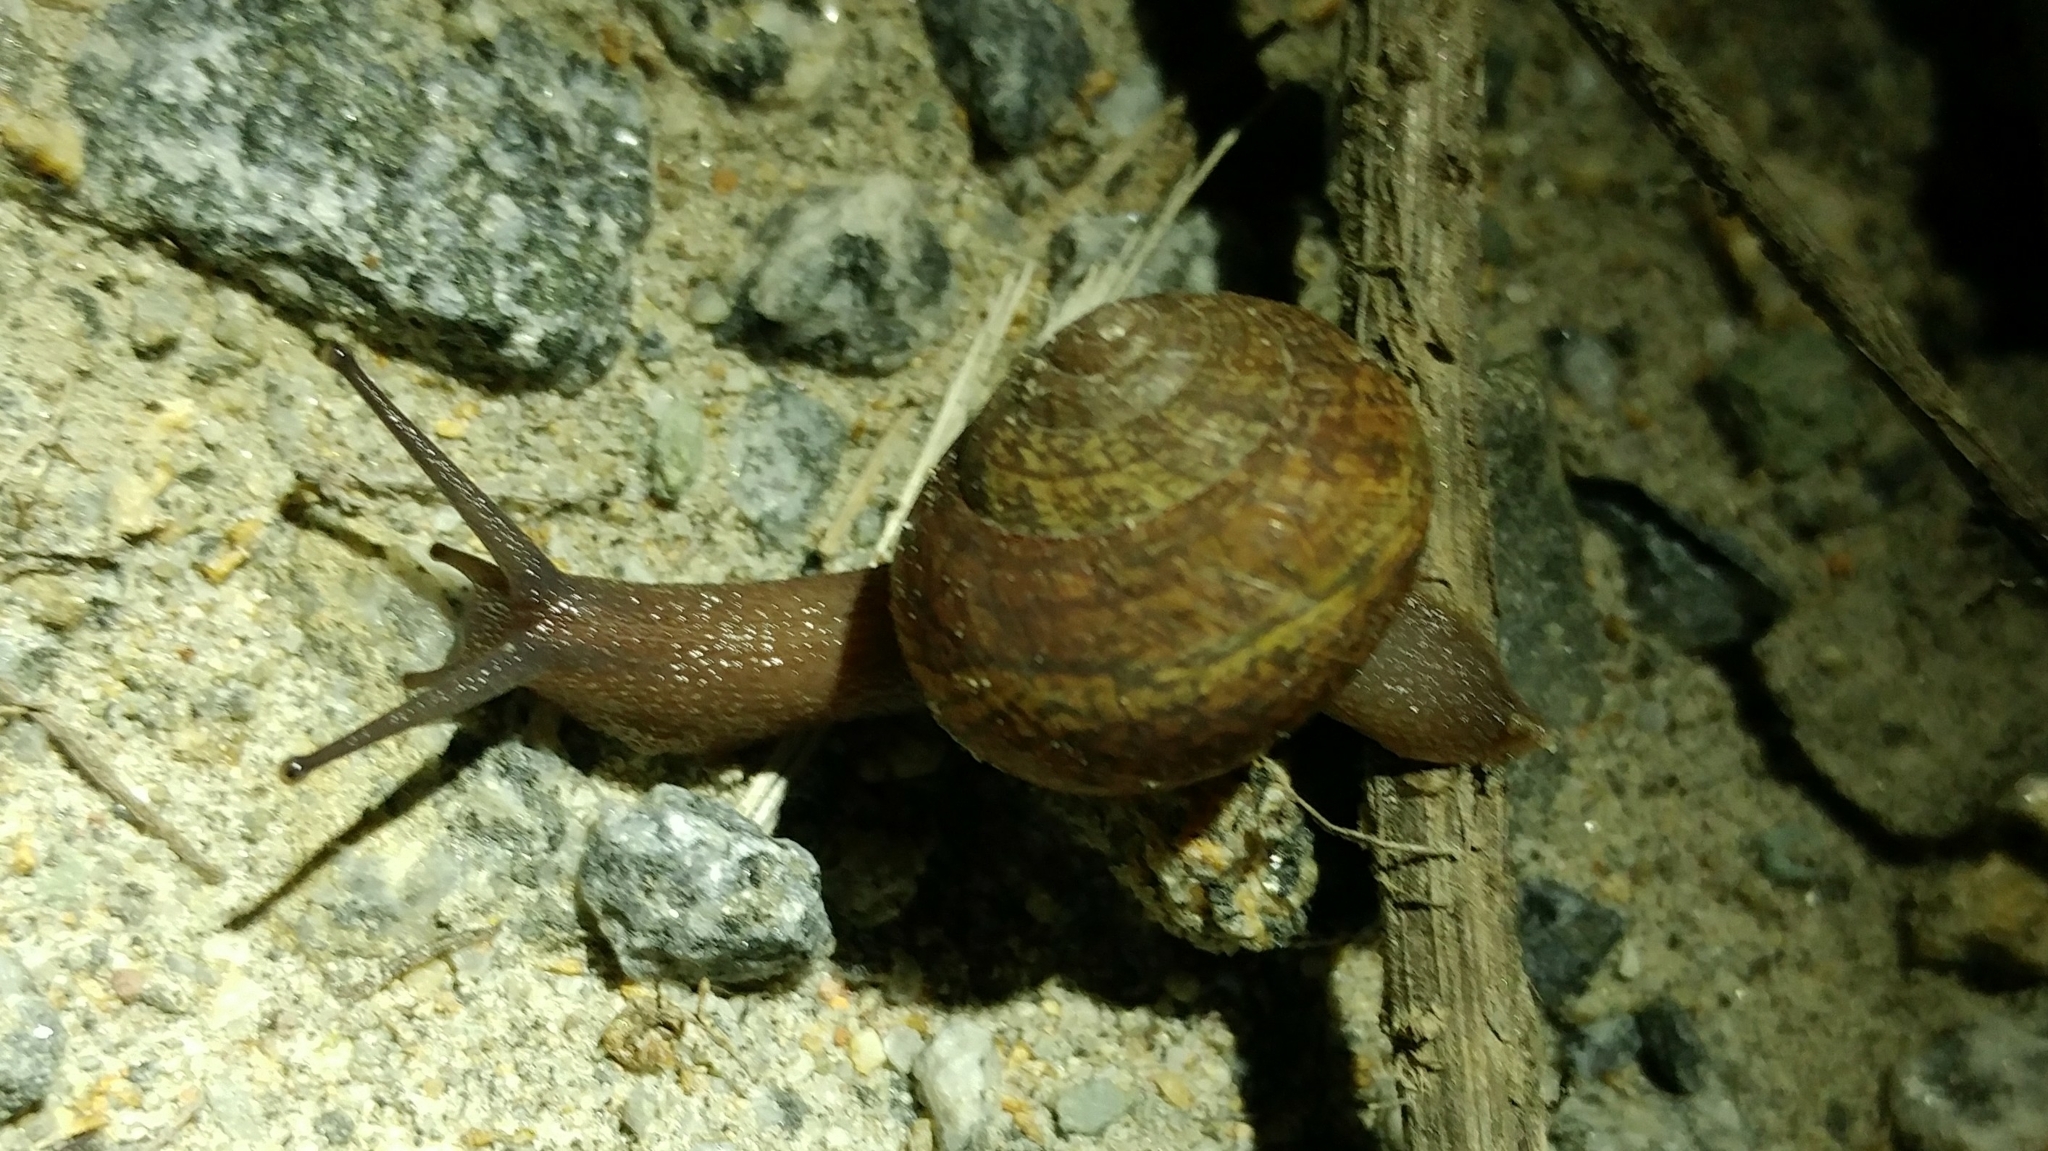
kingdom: Animalia
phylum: Mollusca
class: Gastropoda
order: Stylommatophora
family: Xanthonychidae
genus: Xerarionta
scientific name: Xerarionta stearnsiana
